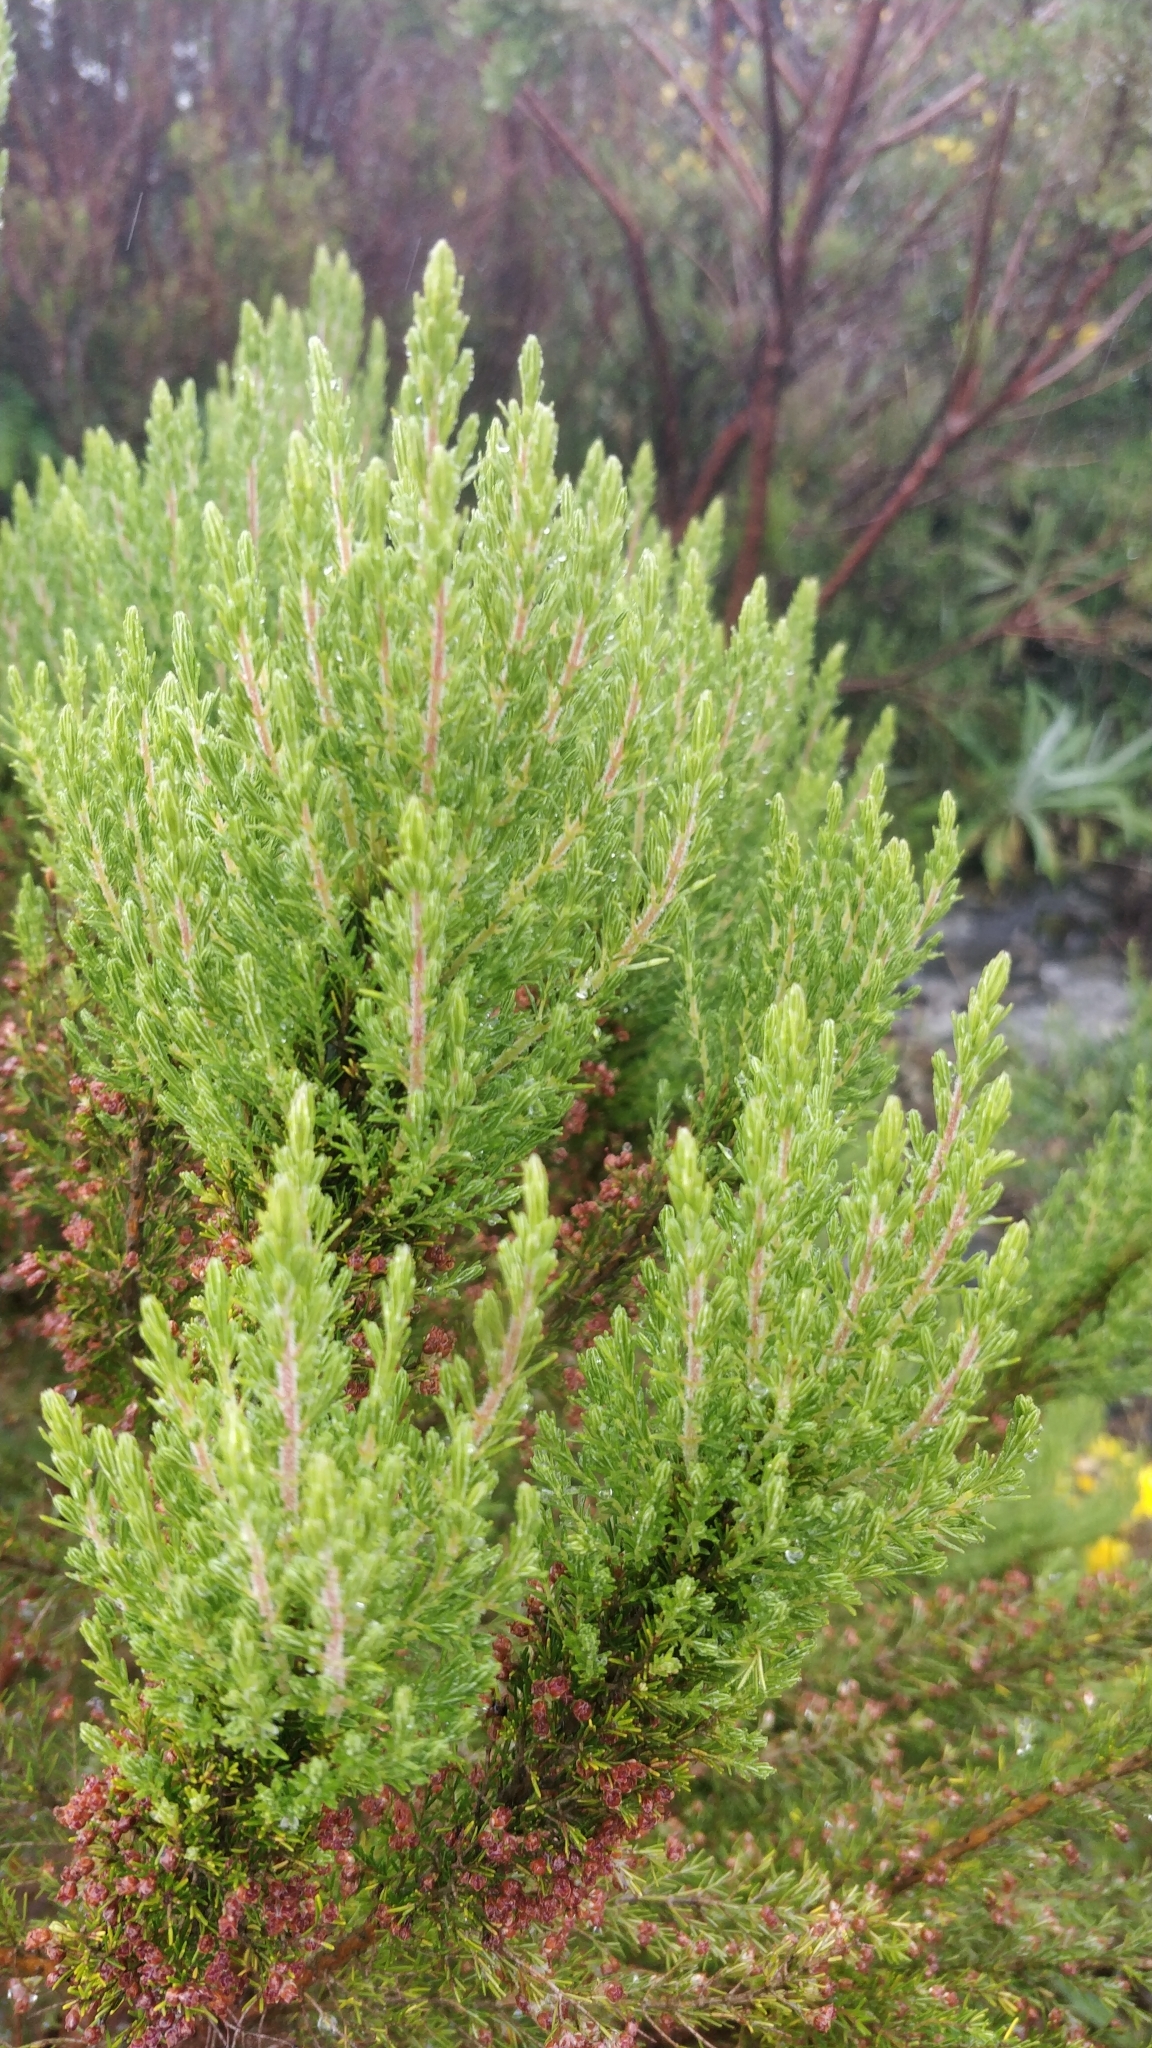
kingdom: Plantae
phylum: Tracheophyta
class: Magnoliopsida
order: Ericales
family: Ericaceae
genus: Erica
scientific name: Erica canariensis
